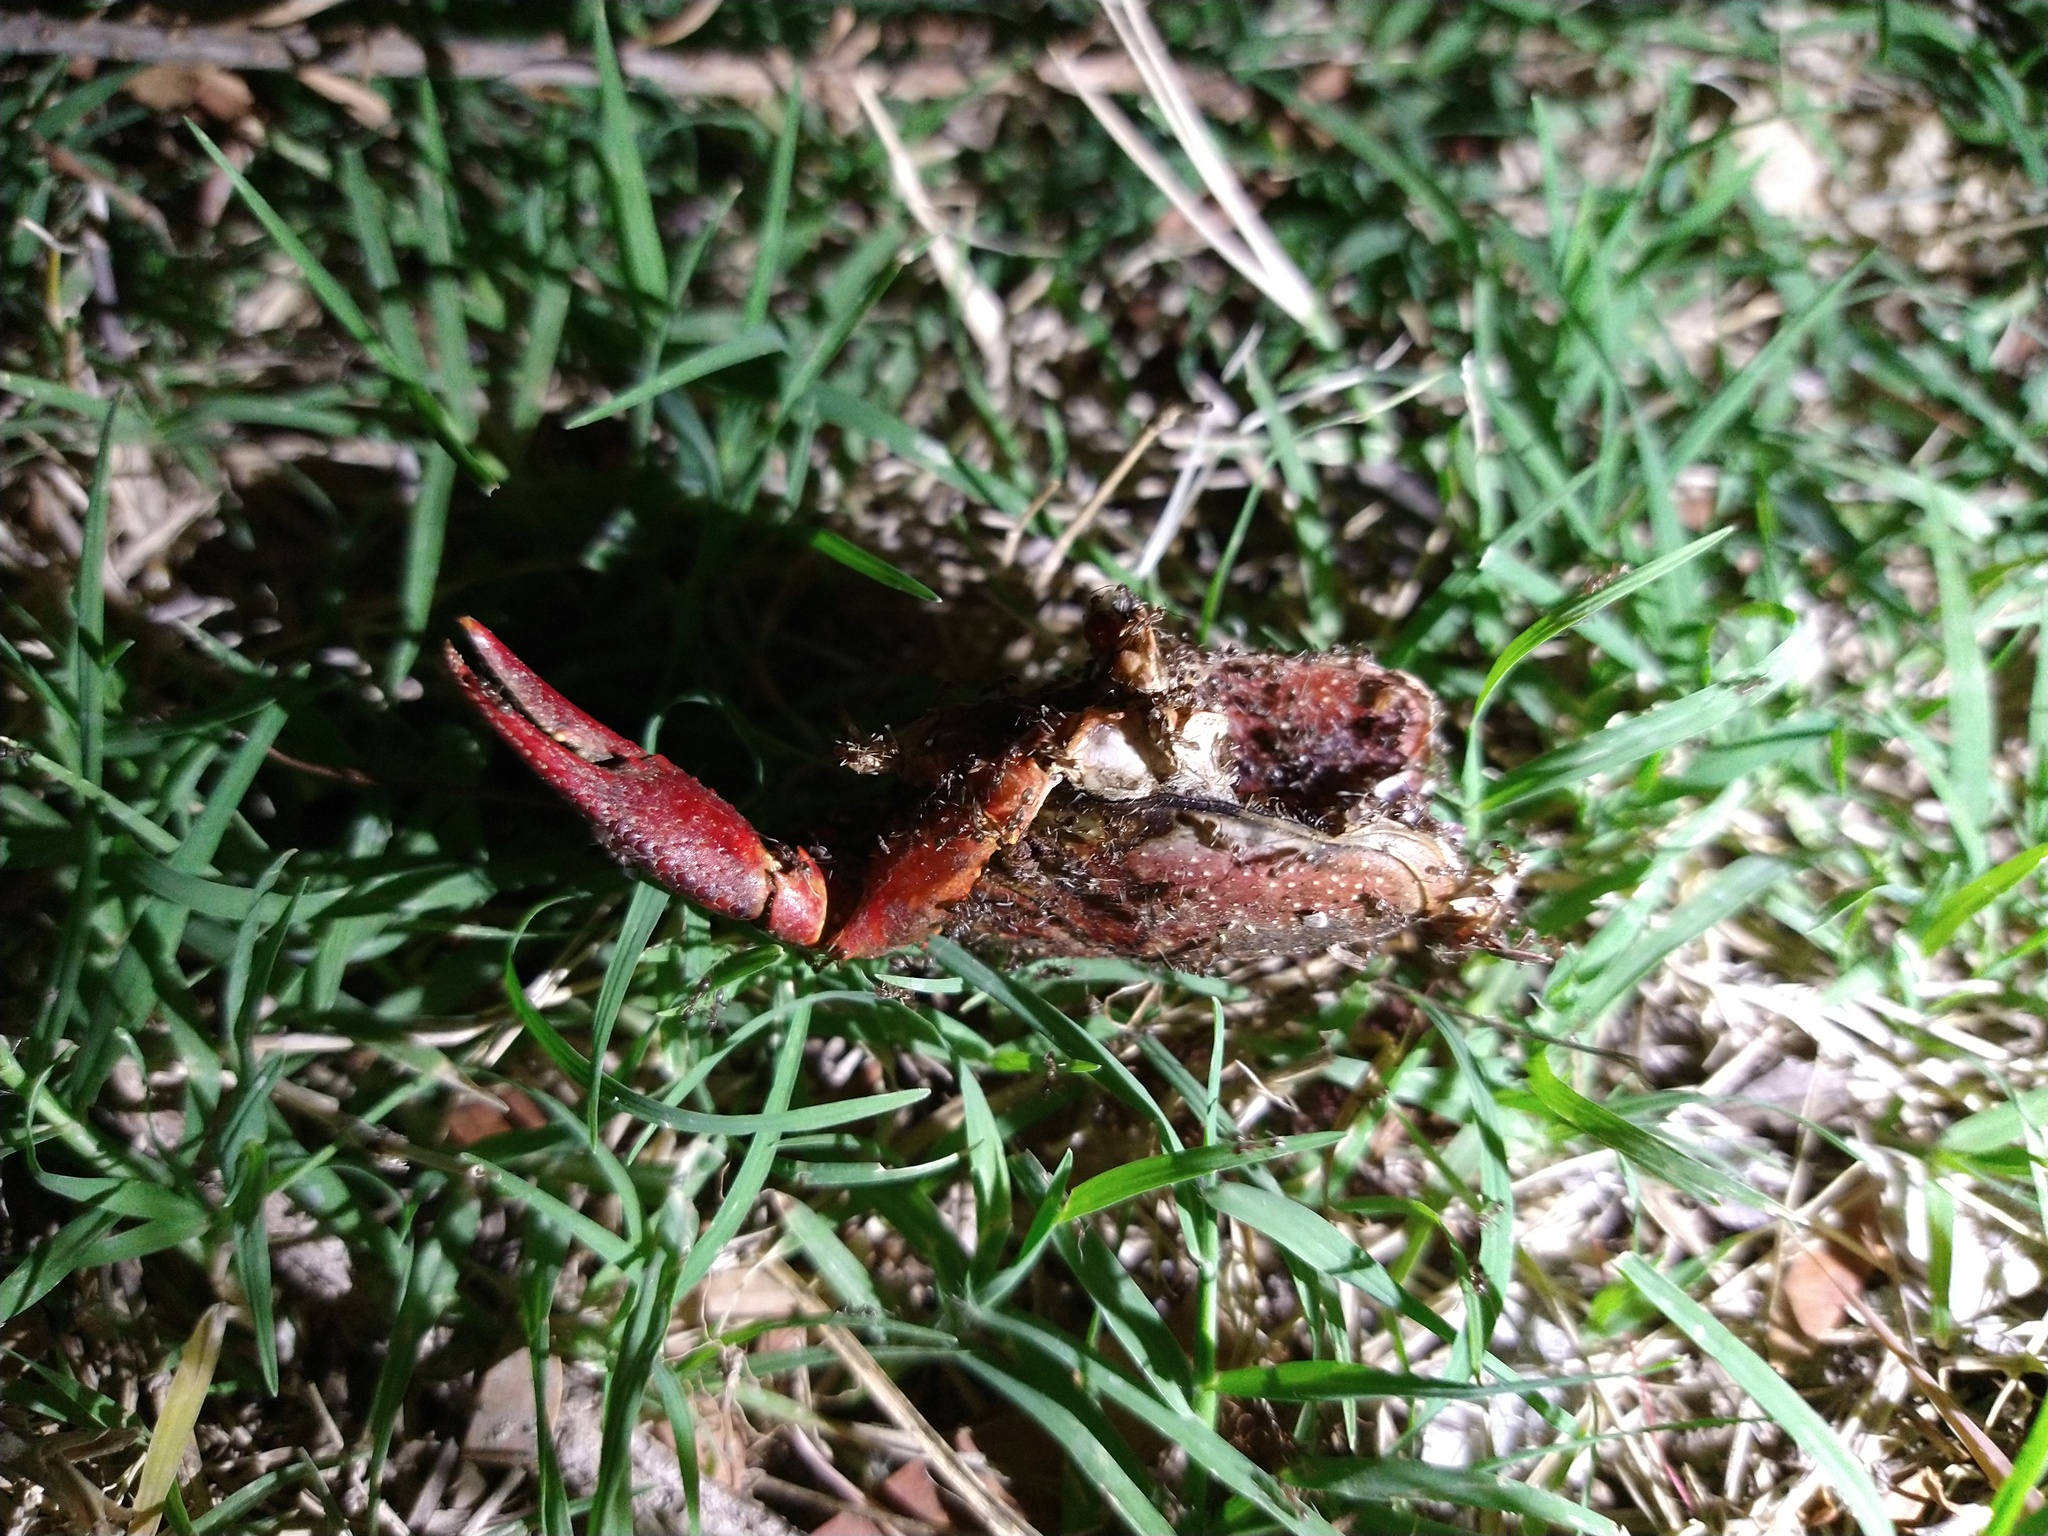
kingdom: Animalia
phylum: Arthropoda
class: Insecta
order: Hymenoptera
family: Formicidae
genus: Linepithema
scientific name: Linepithema humile
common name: Argentine ant
